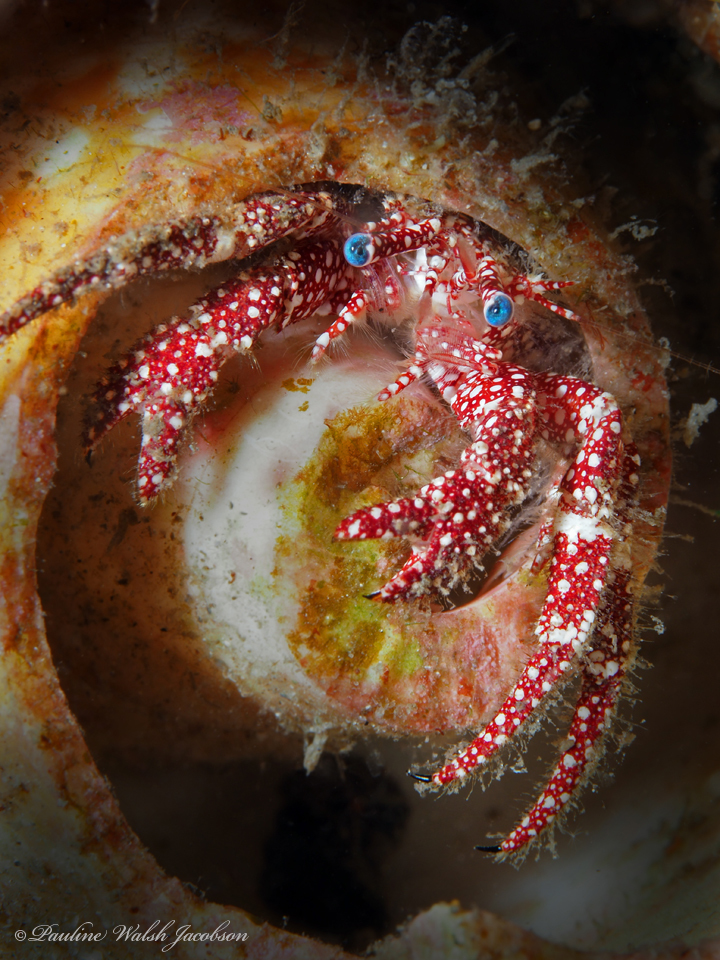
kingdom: Animalia
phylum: Arthropoda
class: Malacostraca
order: Decapoda
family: Diogenidae
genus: Paguristes
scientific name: Paguristes puncticeps
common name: White speckled hermit
